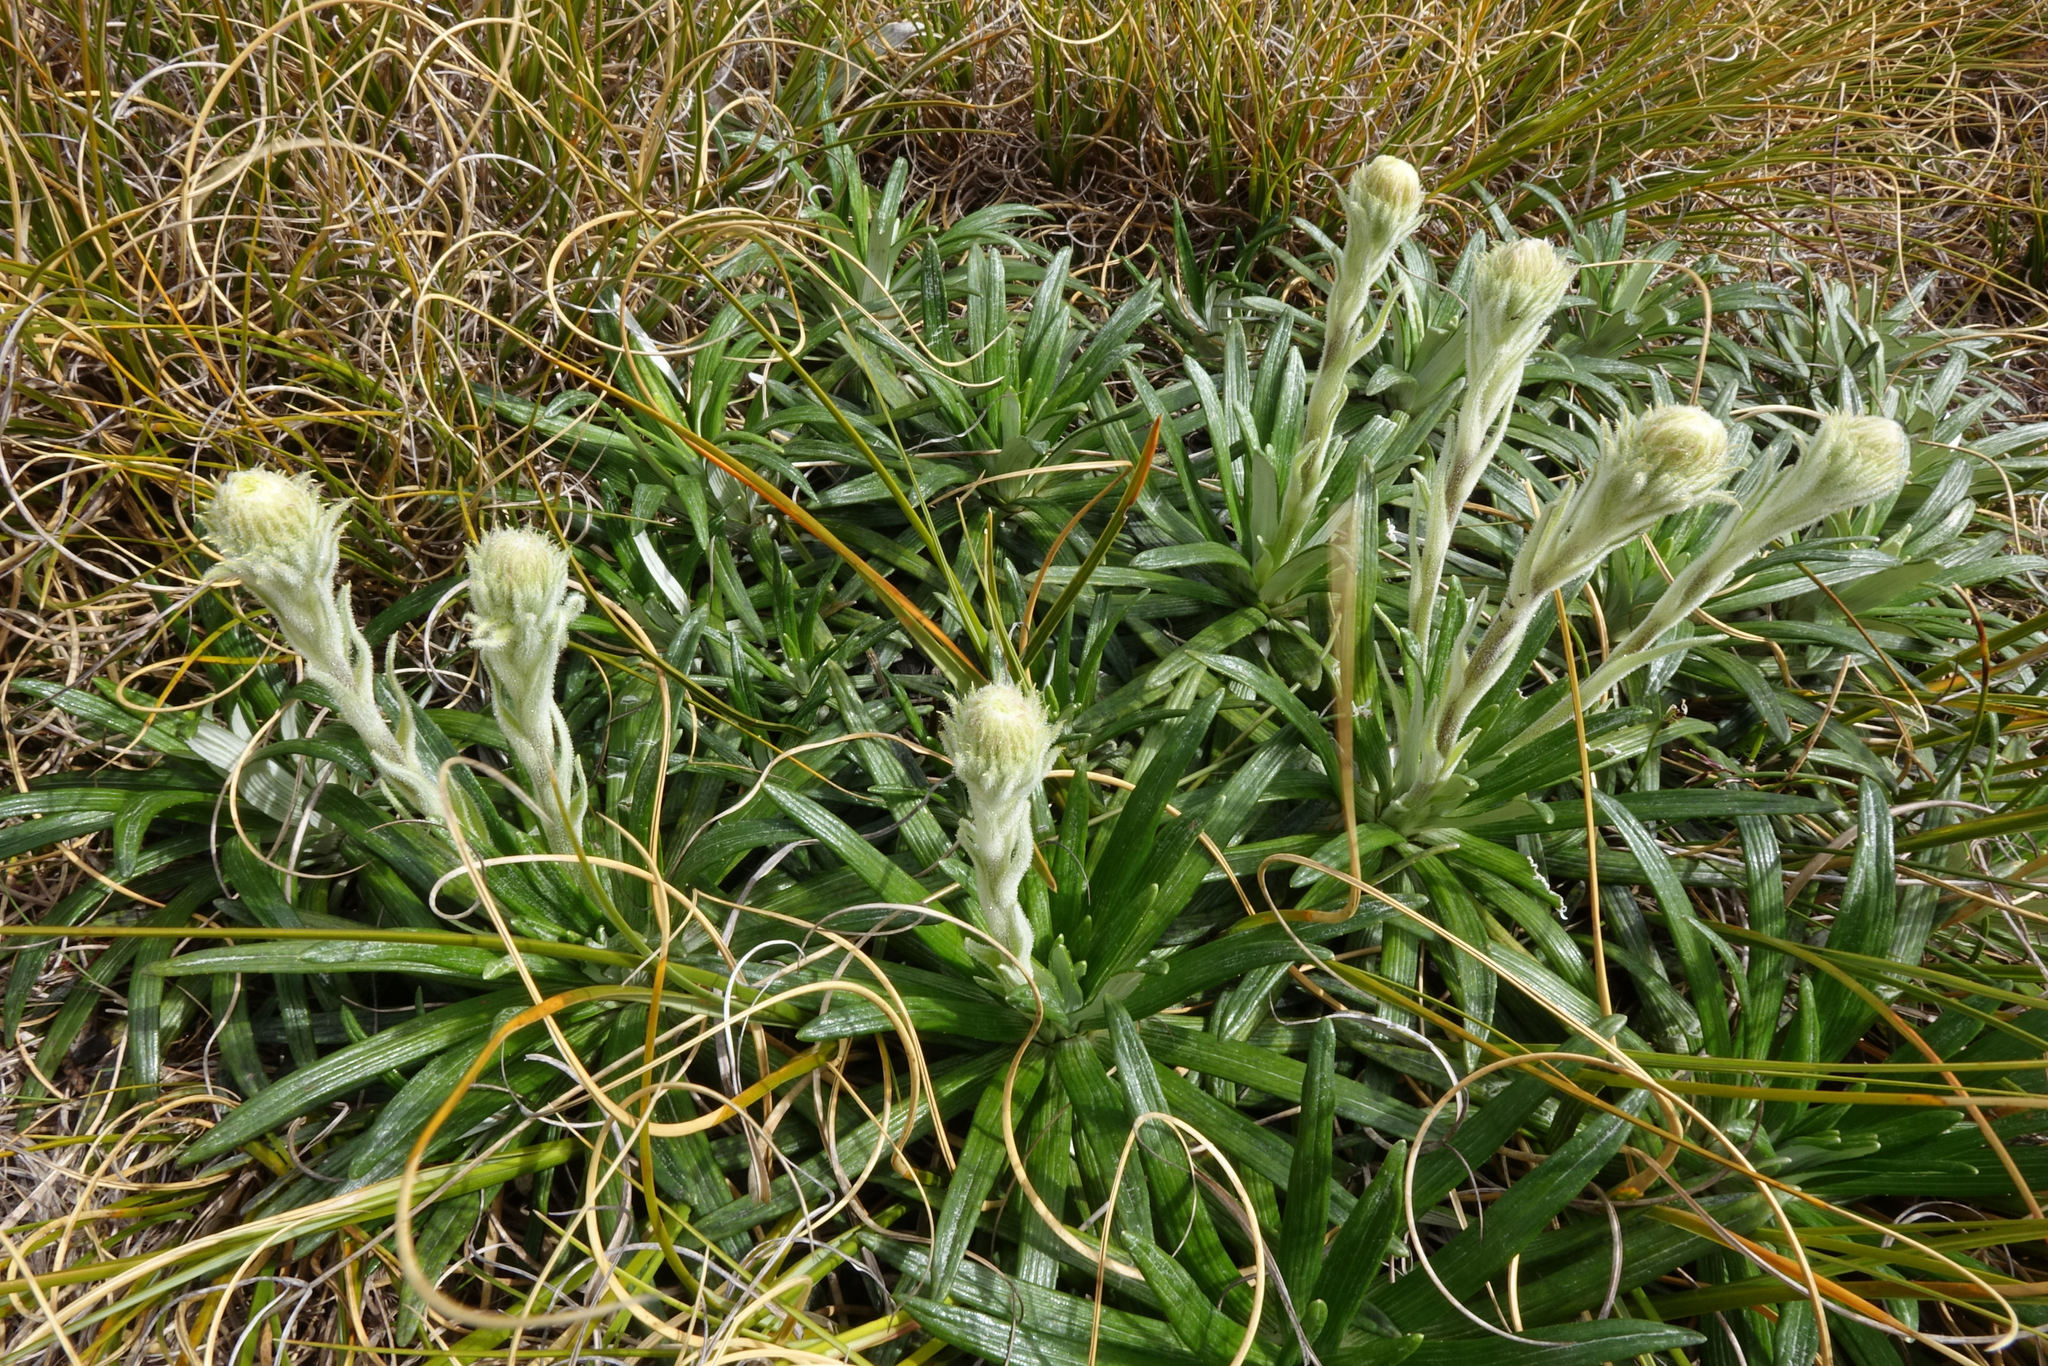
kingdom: Plantae
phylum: Tracheophyta
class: Magnoliopsida
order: Asterales
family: Asteraceae
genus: Celmisia
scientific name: Celmisia viscosa
